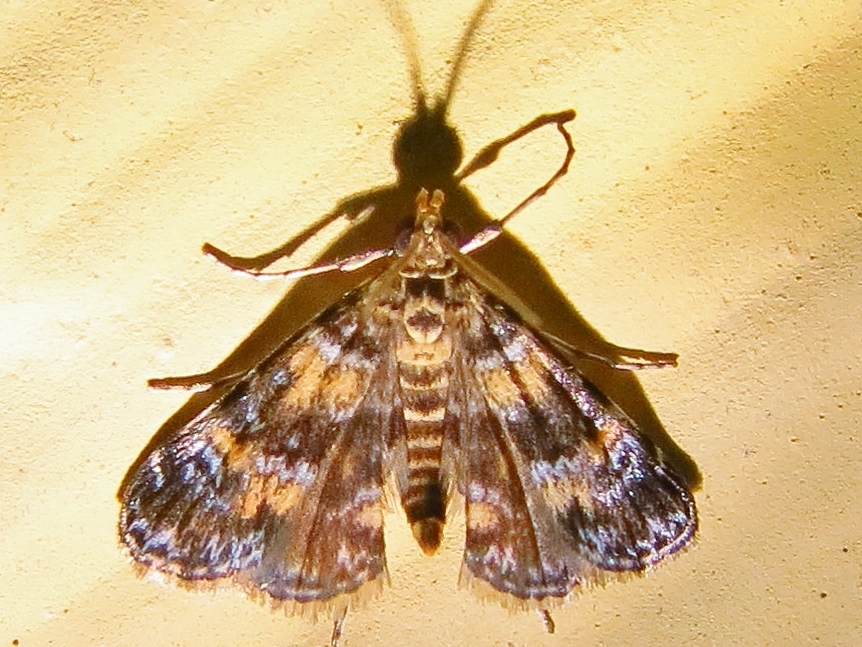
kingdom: Animalia
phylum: Arthropoda
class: Insecta
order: Lepidoptera
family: Crambidae
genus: Elophila
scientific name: Elophila obliteralis
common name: Waterlily leafcutter moth
